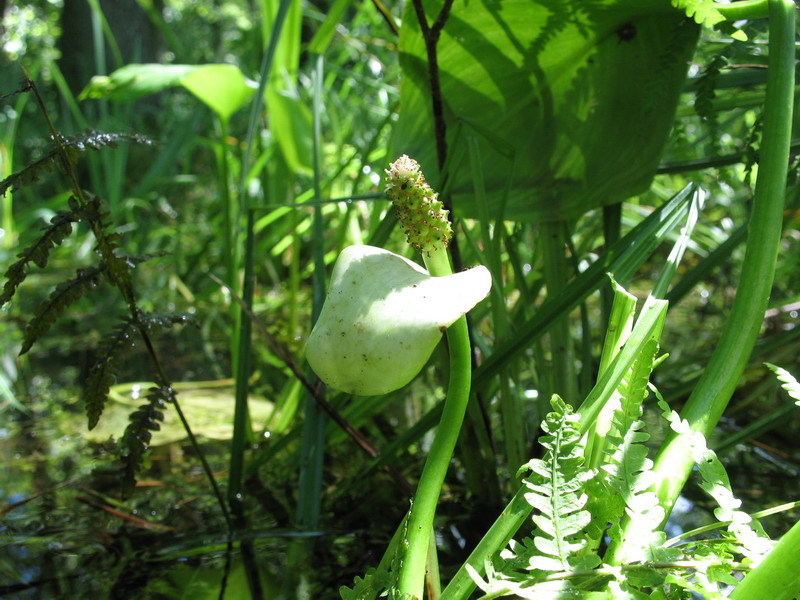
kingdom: Plantae
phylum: Tracheophyta
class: Liliopsida
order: Alismatales
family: Araceae
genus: Calla
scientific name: Calla palustris
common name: Bog arum
